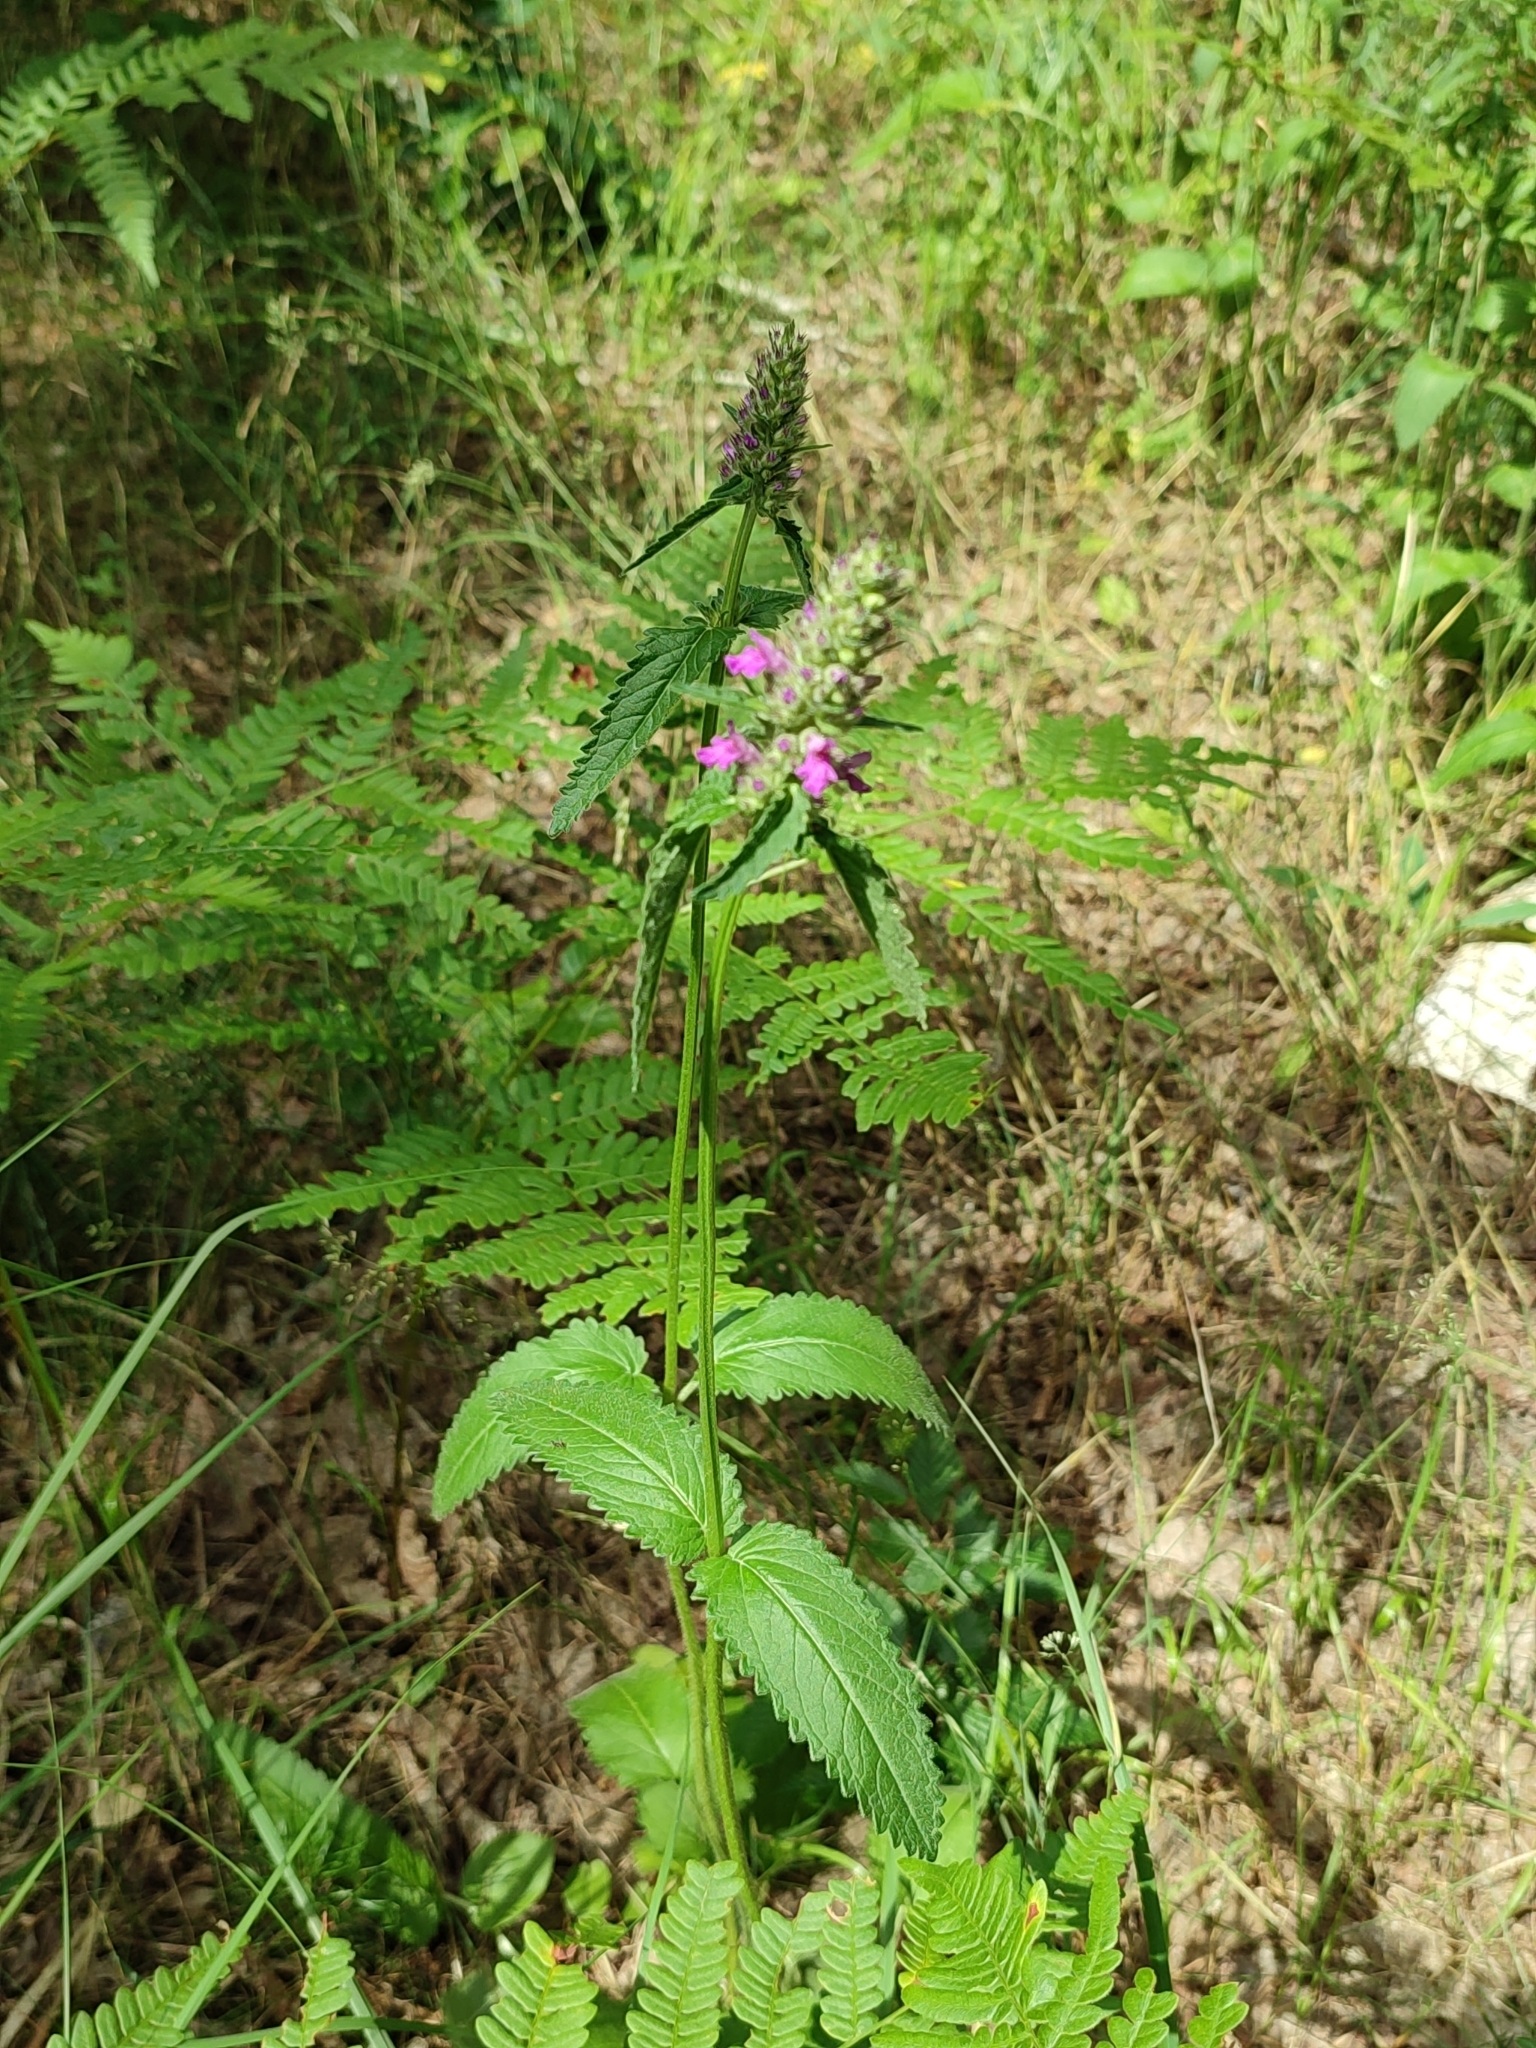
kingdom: Plantae
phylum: Tracheophyta
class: Magnoliopsida
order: Lamiales
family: Lamiaceae
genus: Betonica
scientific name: Betonica officinalis
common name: Bishop's-wort
